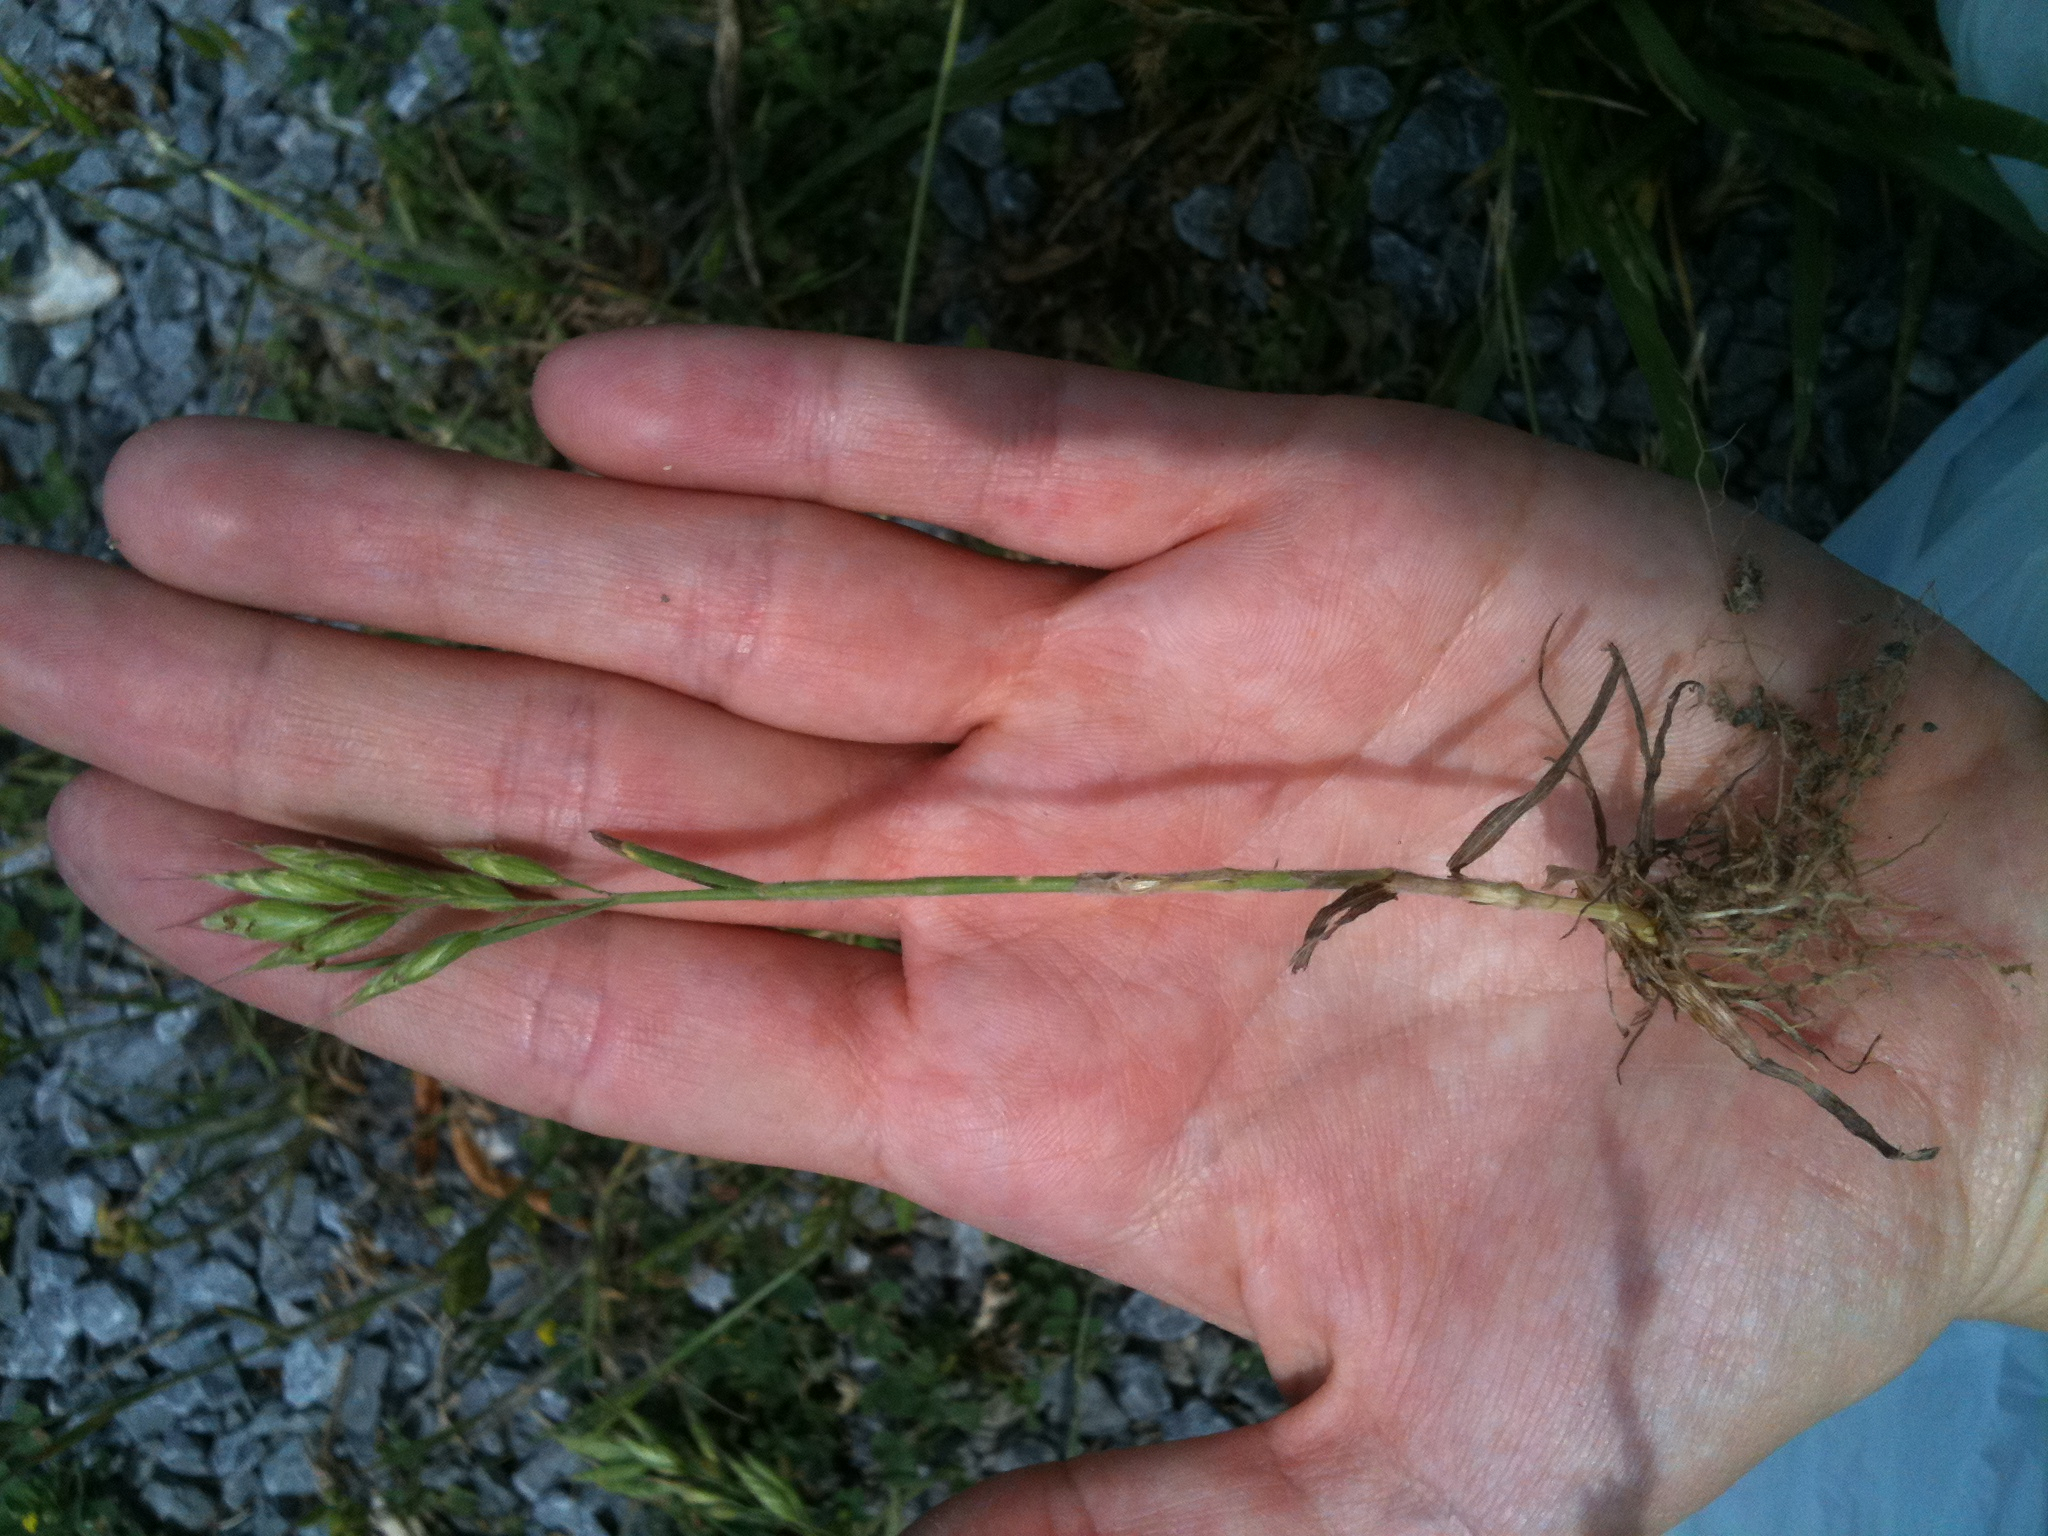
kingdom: Plantae
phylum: Tracheophyta
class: Liliopsida
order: Poales
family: Poaceae
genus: Bromus
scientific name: Bromus hordeaceus
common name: Soft brome
